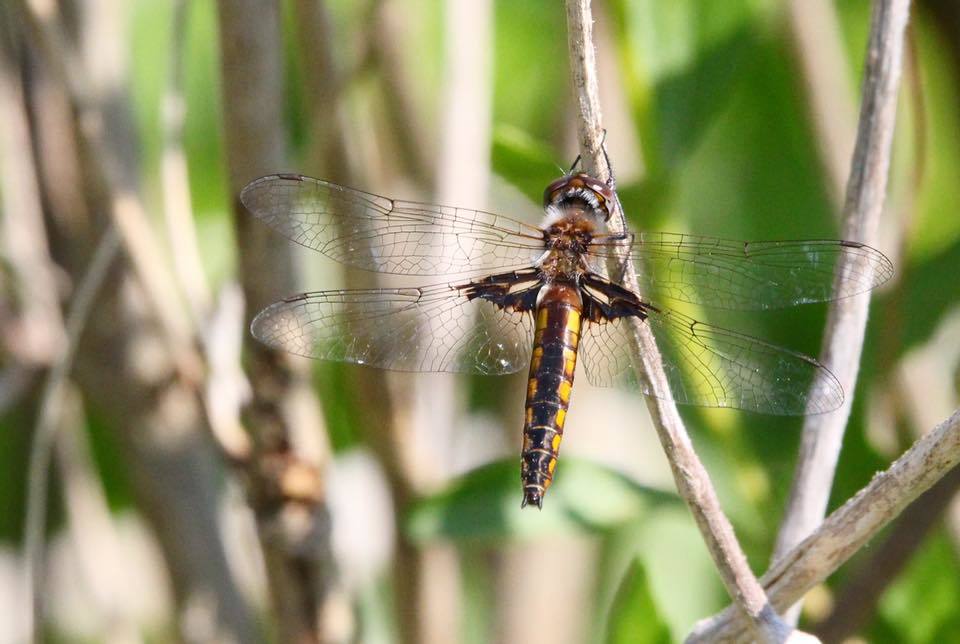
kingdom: Animalia
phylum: Arthropoda
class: Insecta
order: Odonata
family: Corduliidae
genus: Epitheca
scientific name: Epitheca semiaquea
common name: Mantled baskettail
